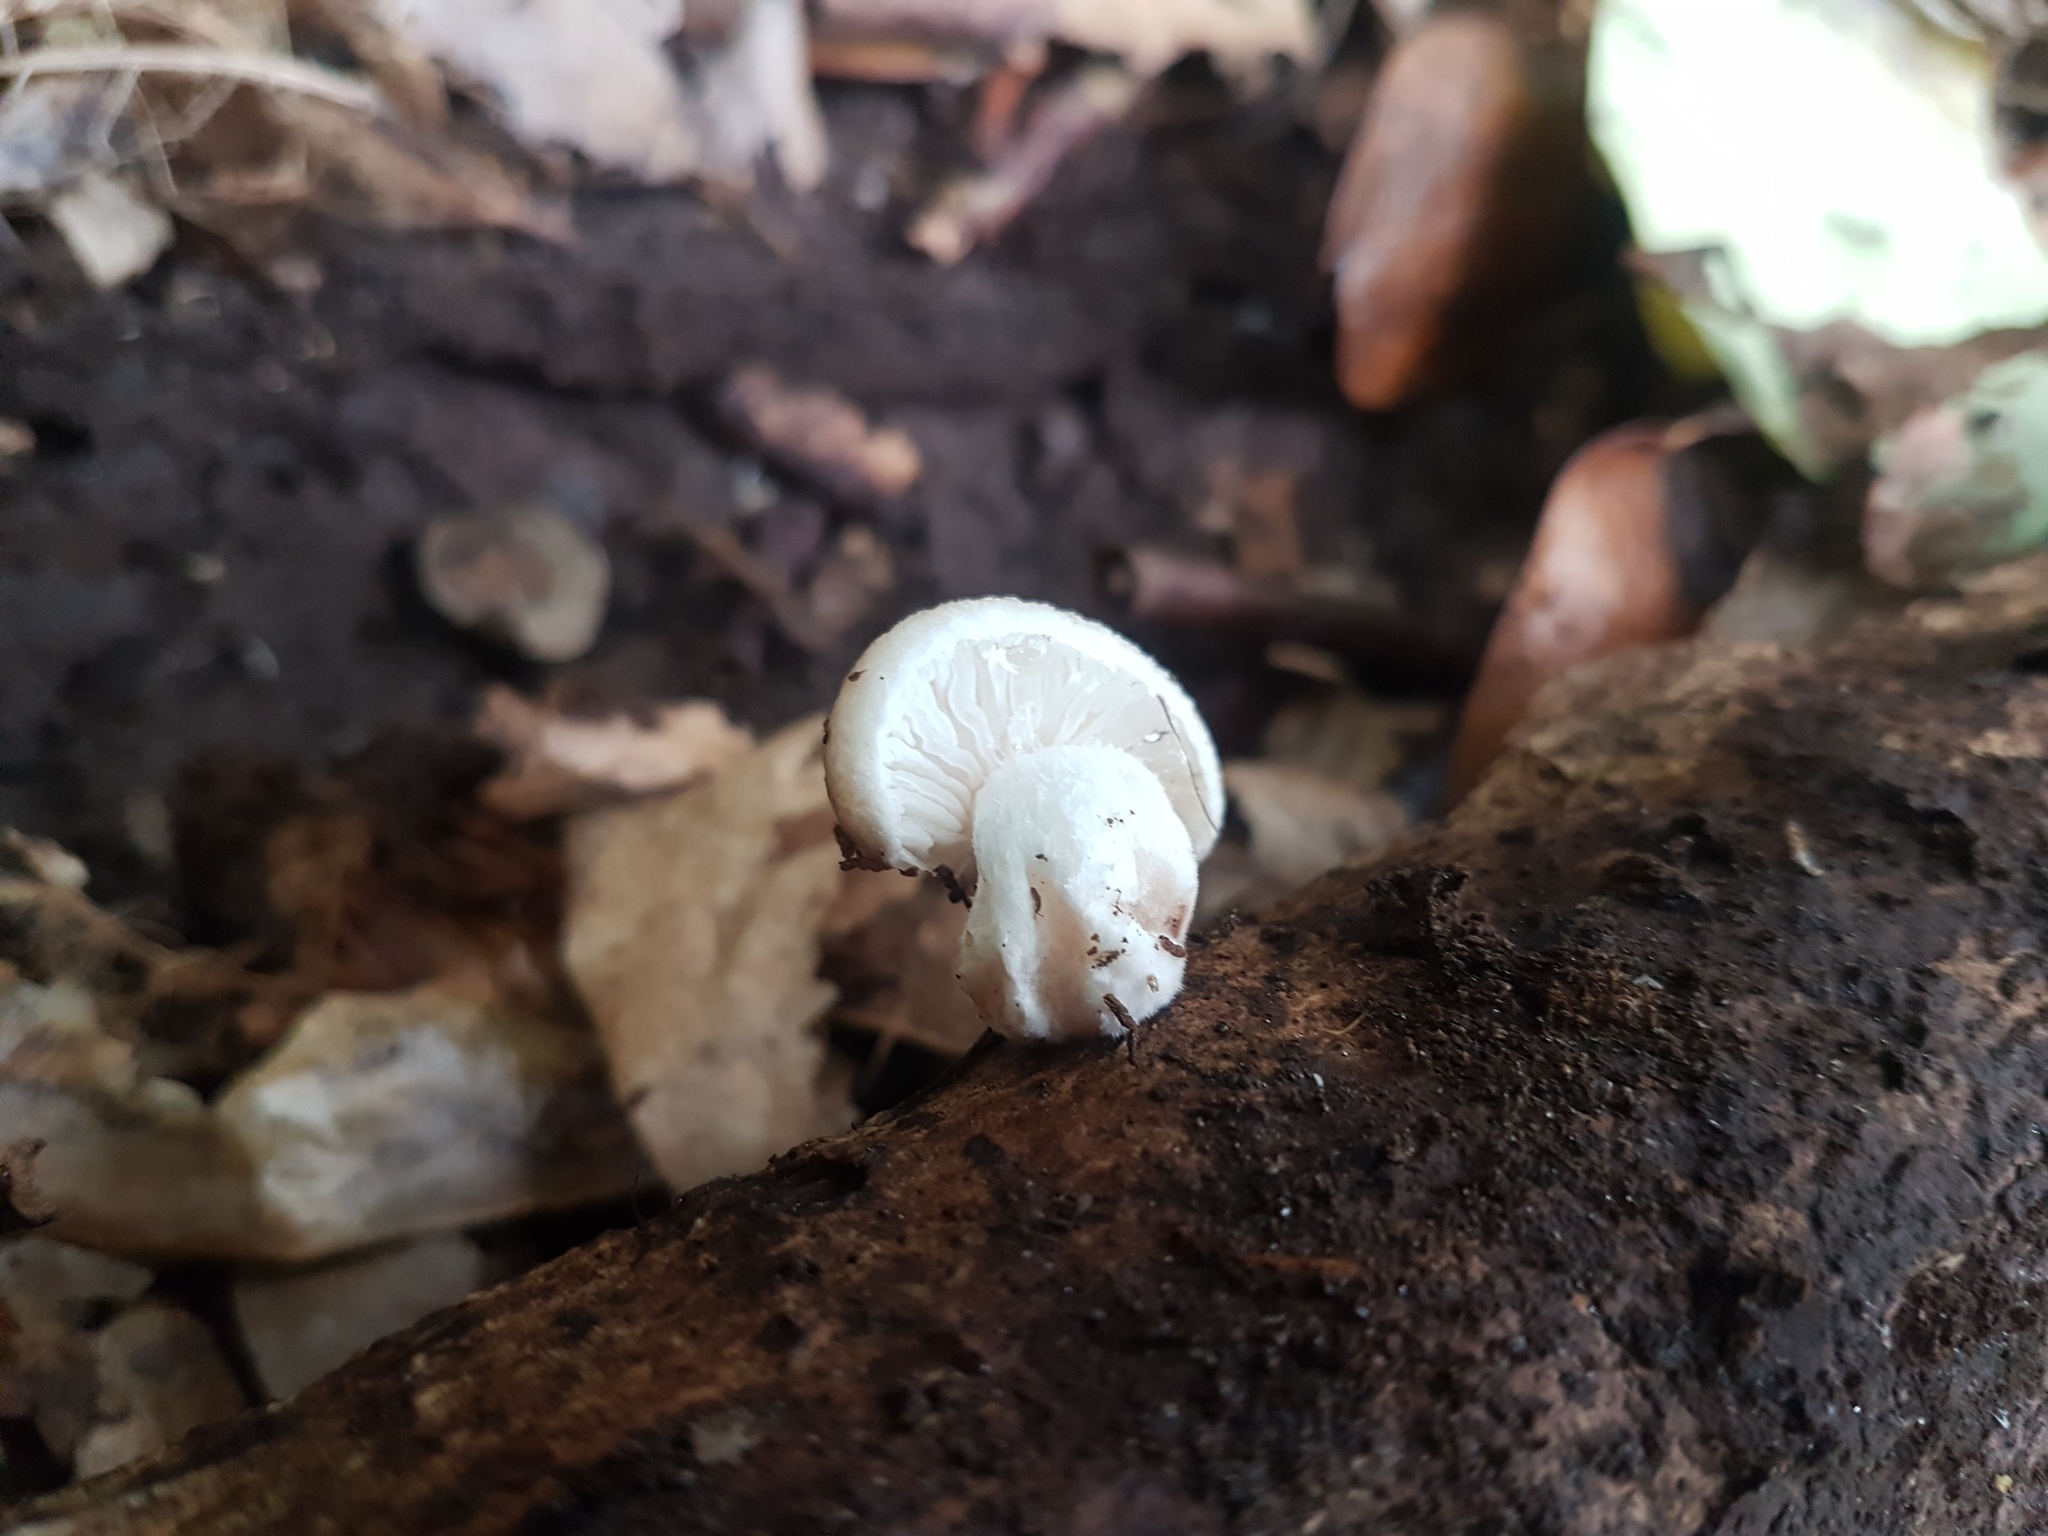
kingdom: Fungi
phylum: Basidiomycota
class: Agaricomycetes
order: Agaricales
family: Physalacriaceae
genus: Oudemansiella
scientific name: Oudemansiella australis
